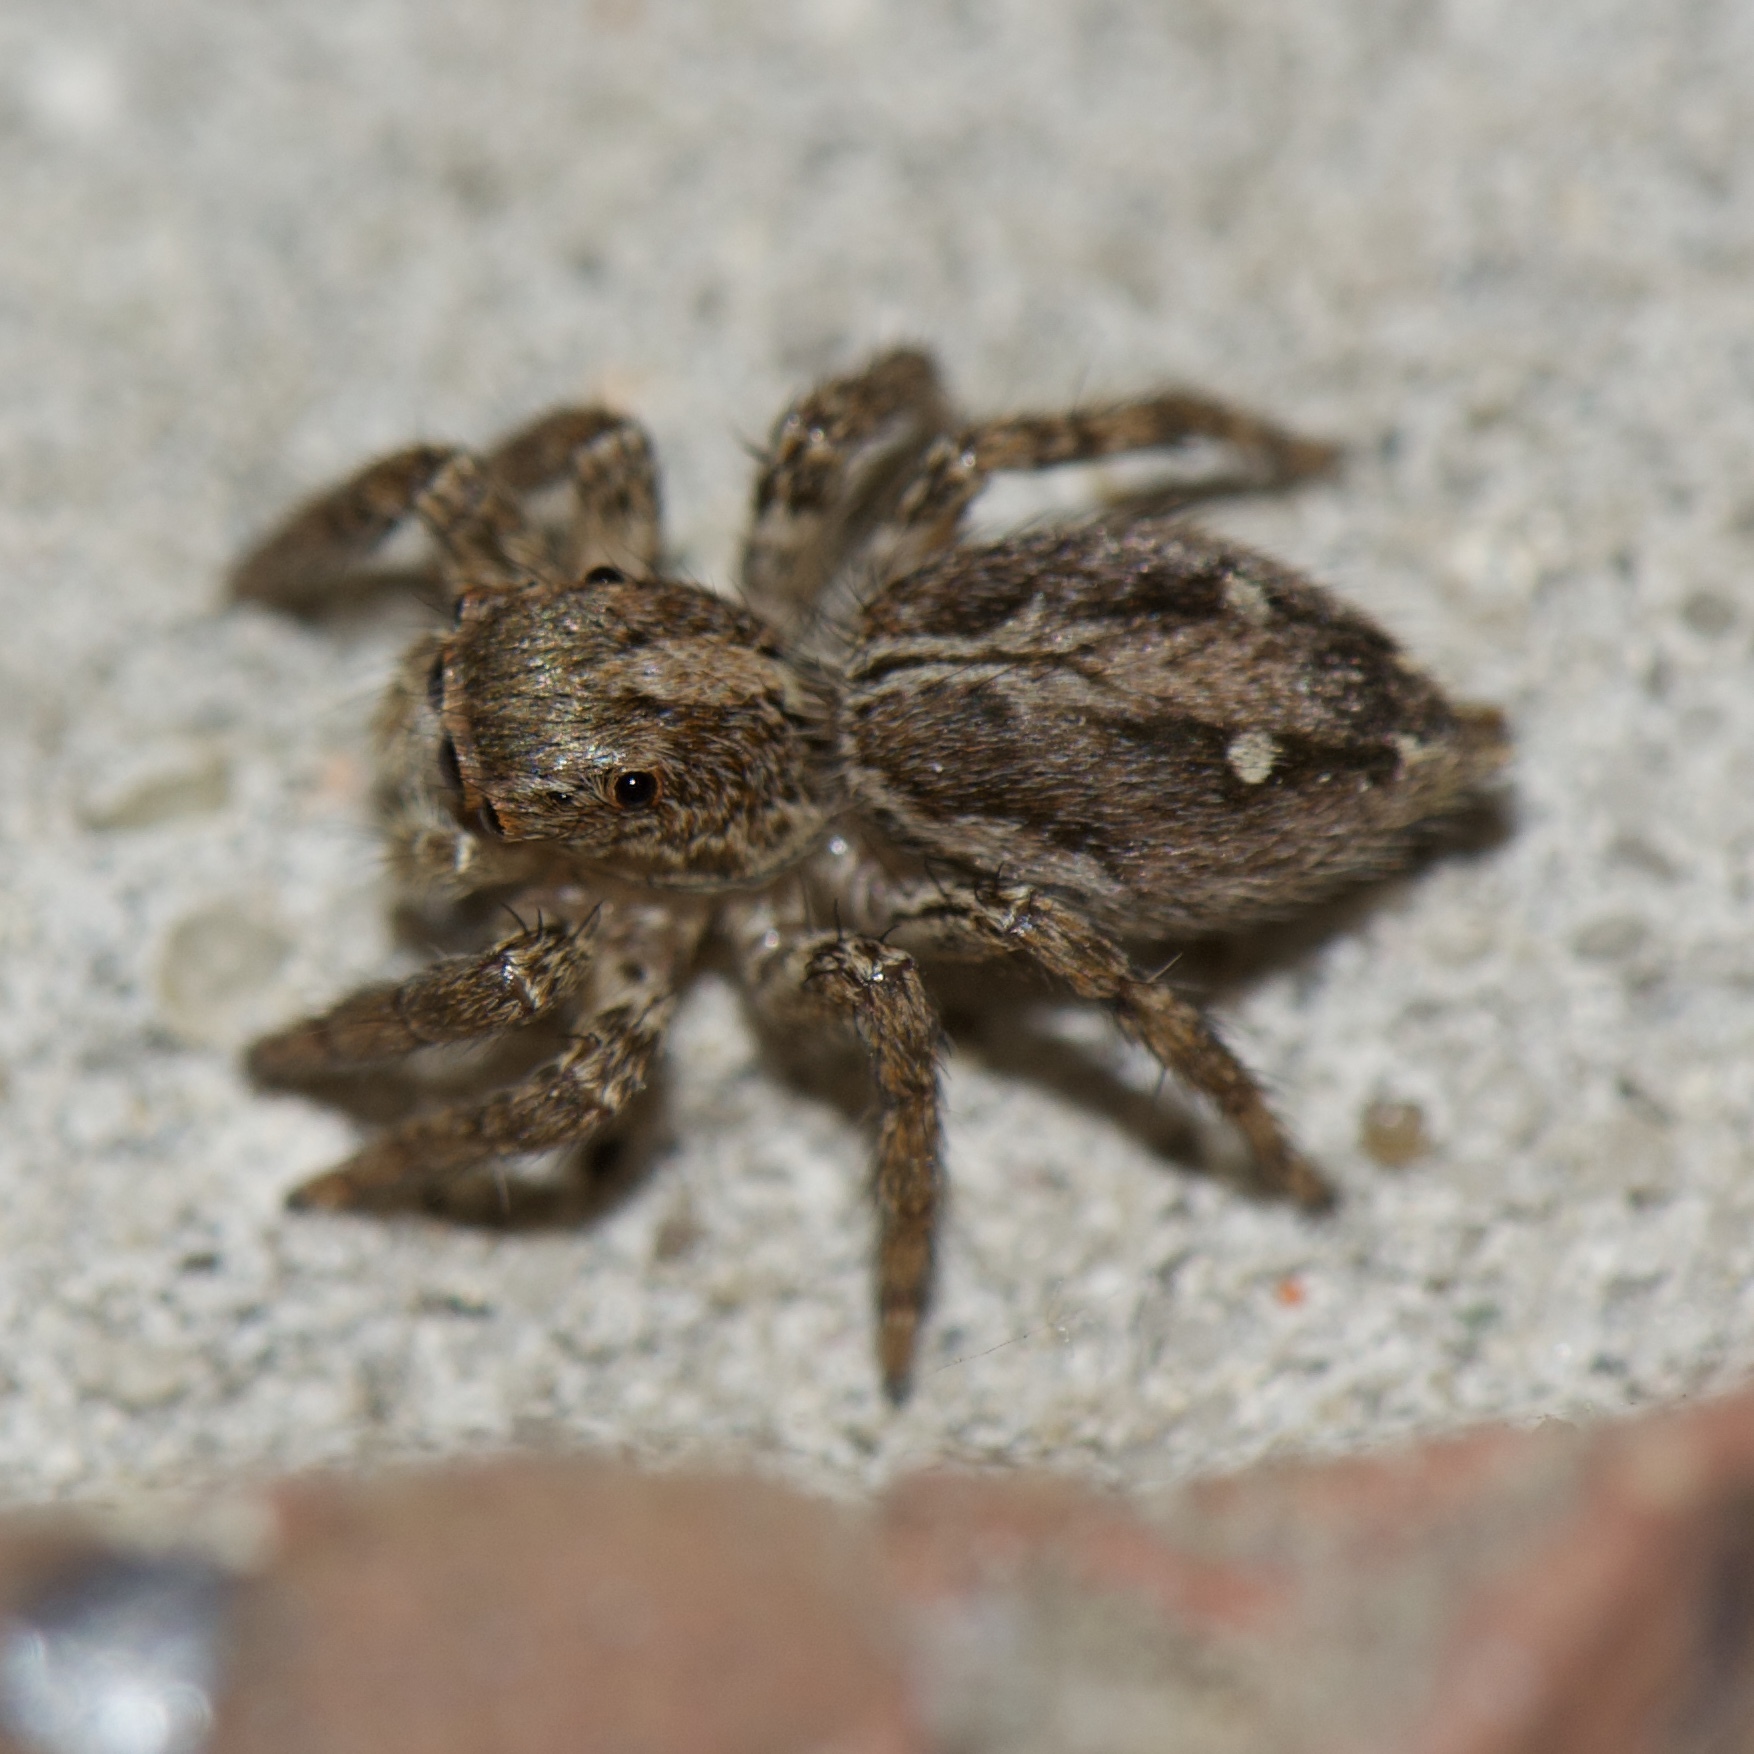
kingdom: Animalia
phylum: Arthropoda
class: Arachnida
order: Araneae
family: Salticidae
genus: Plexippus
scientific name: Plexippus paykulli
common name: Pantropical jumper
